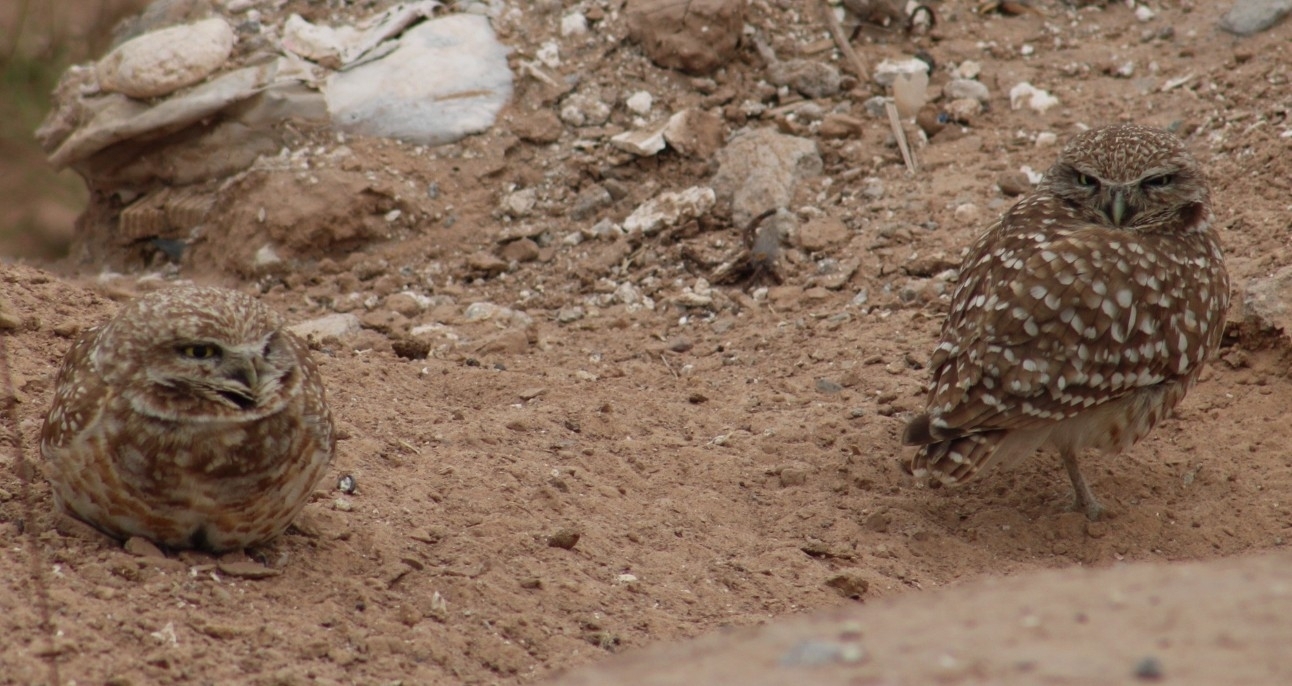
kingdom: Animalia
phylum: Chordata
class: Aves
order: Strigiformes
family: Strigidae
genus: Athene
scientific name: Athene cunicularia
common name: Burrowing owl
